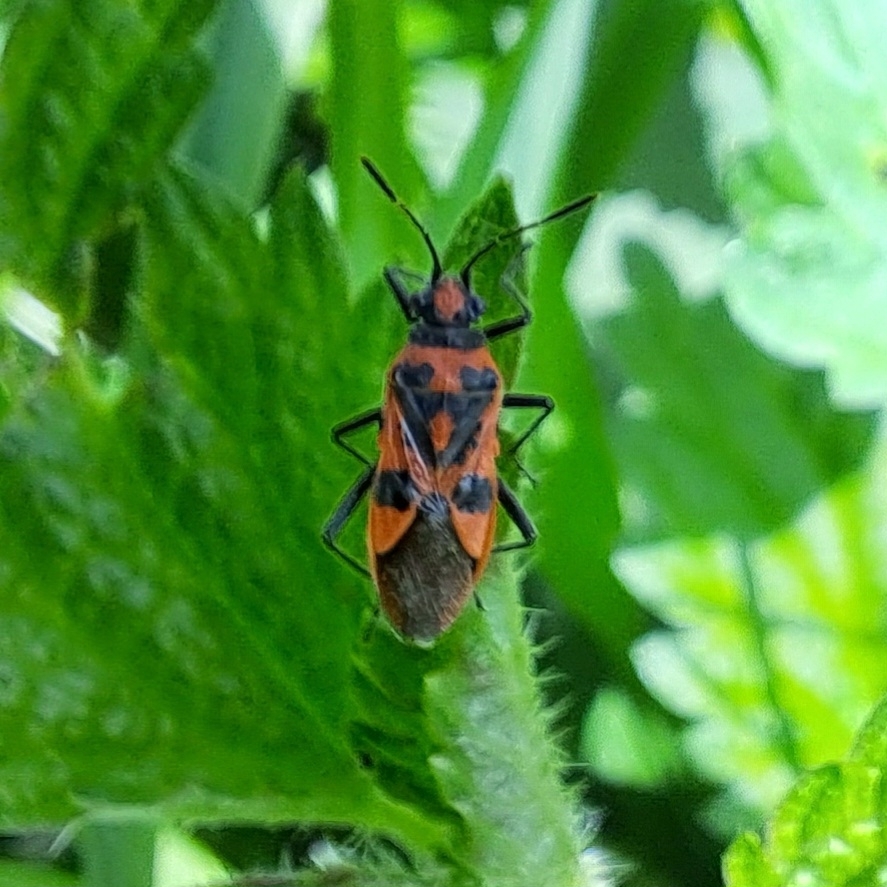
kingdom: Animalia
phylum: Arthropoda
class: Insecta
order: Hemiptera
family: Rhopalidae
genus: Corizus
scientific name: Corizus hyoscyami
